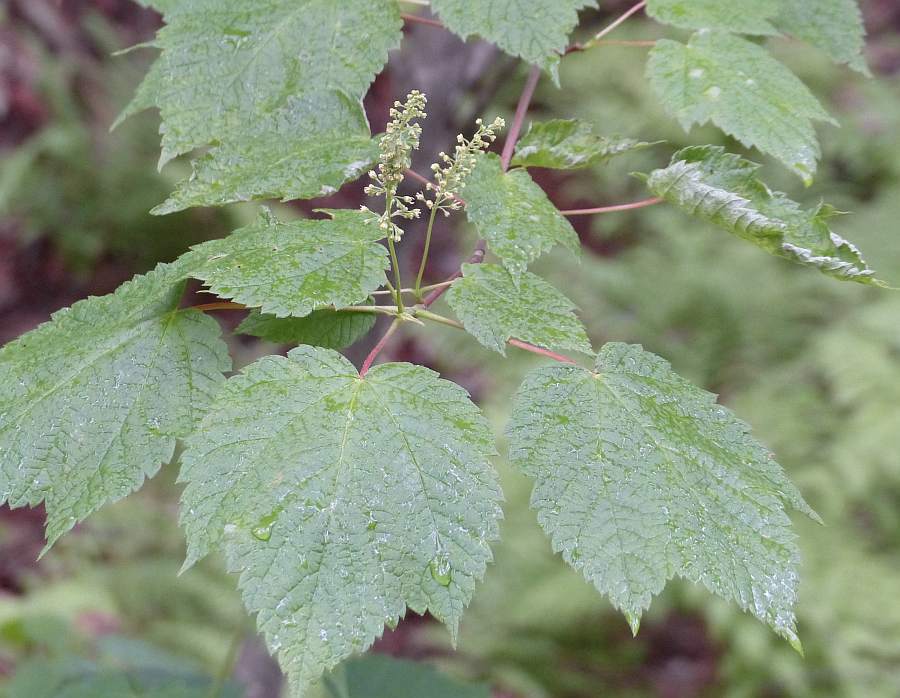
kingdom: Plantae
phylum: Tracheophyta
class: Magnoliopsida
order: Sapindales
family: Sapindaceae
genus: Acer
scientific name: Acer spicatum
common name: Mountain maple
